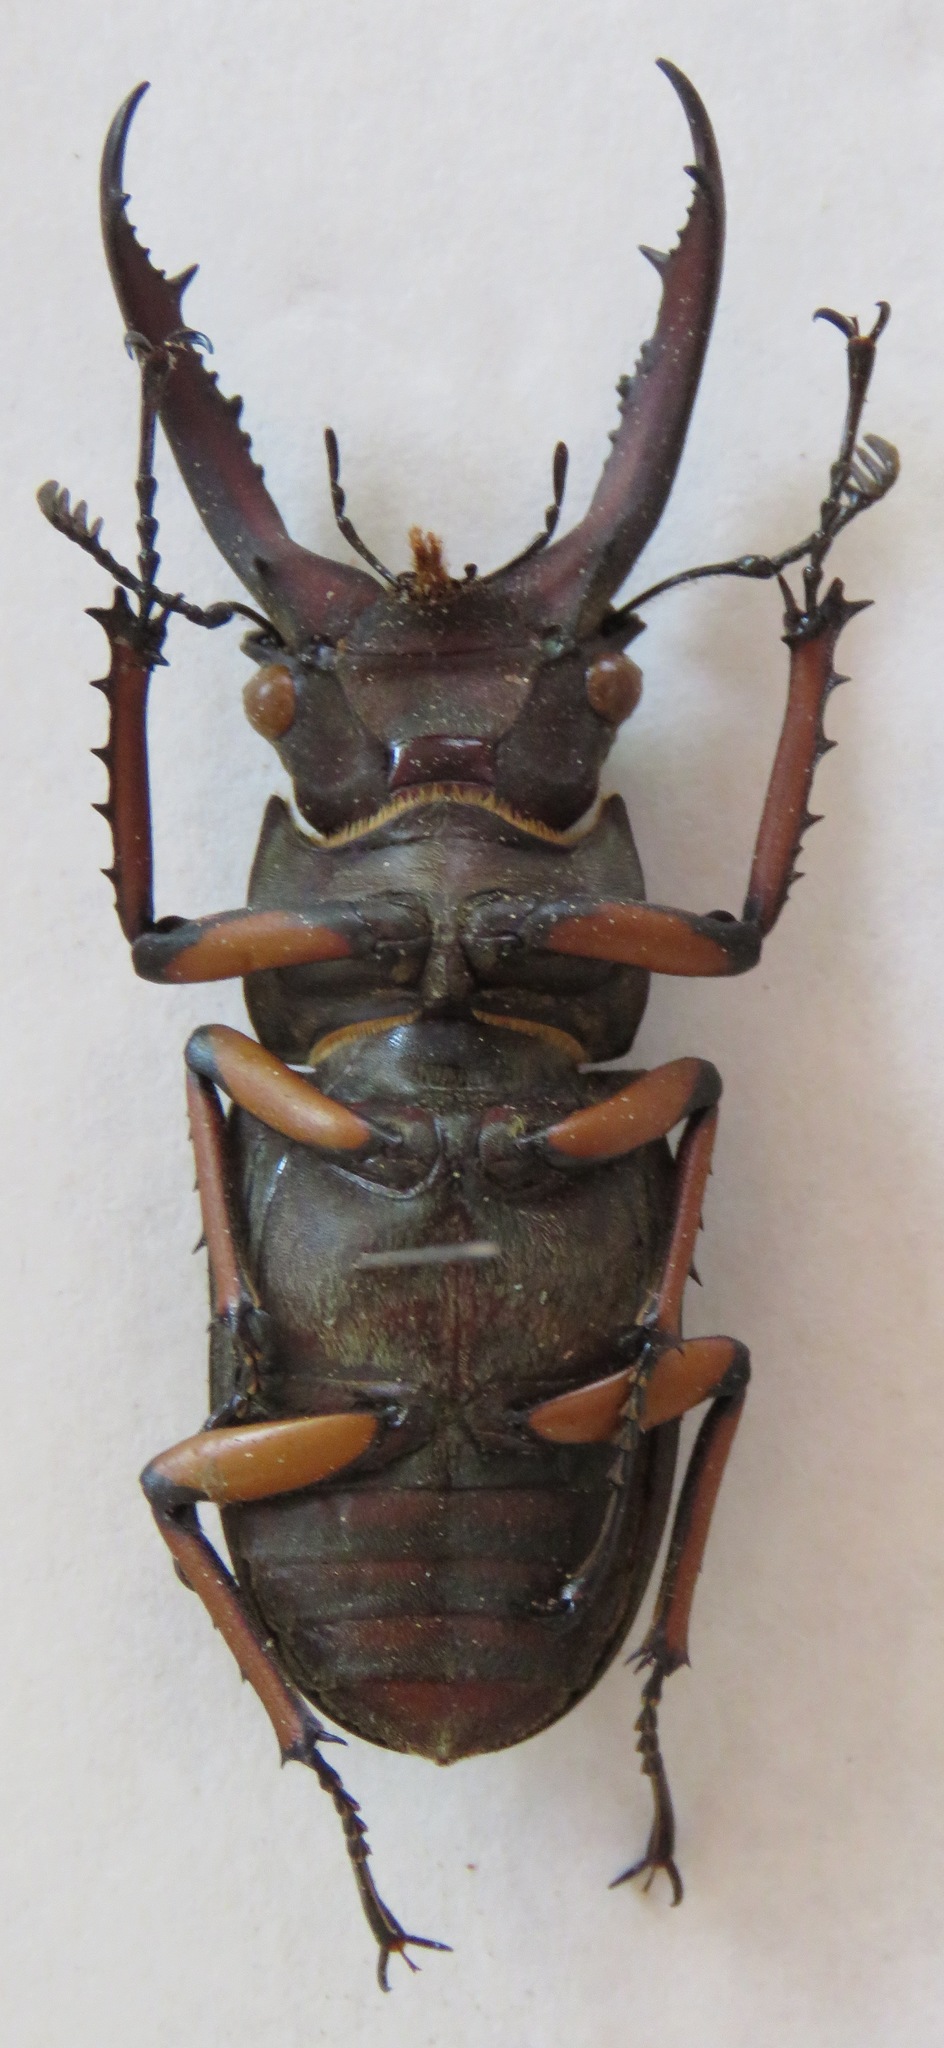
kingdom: Animalia
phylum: Arthropoda
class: Insecta
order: Coleoptera
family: Lucanidae
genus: Lucanus
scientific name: Lucanus angusticornis
